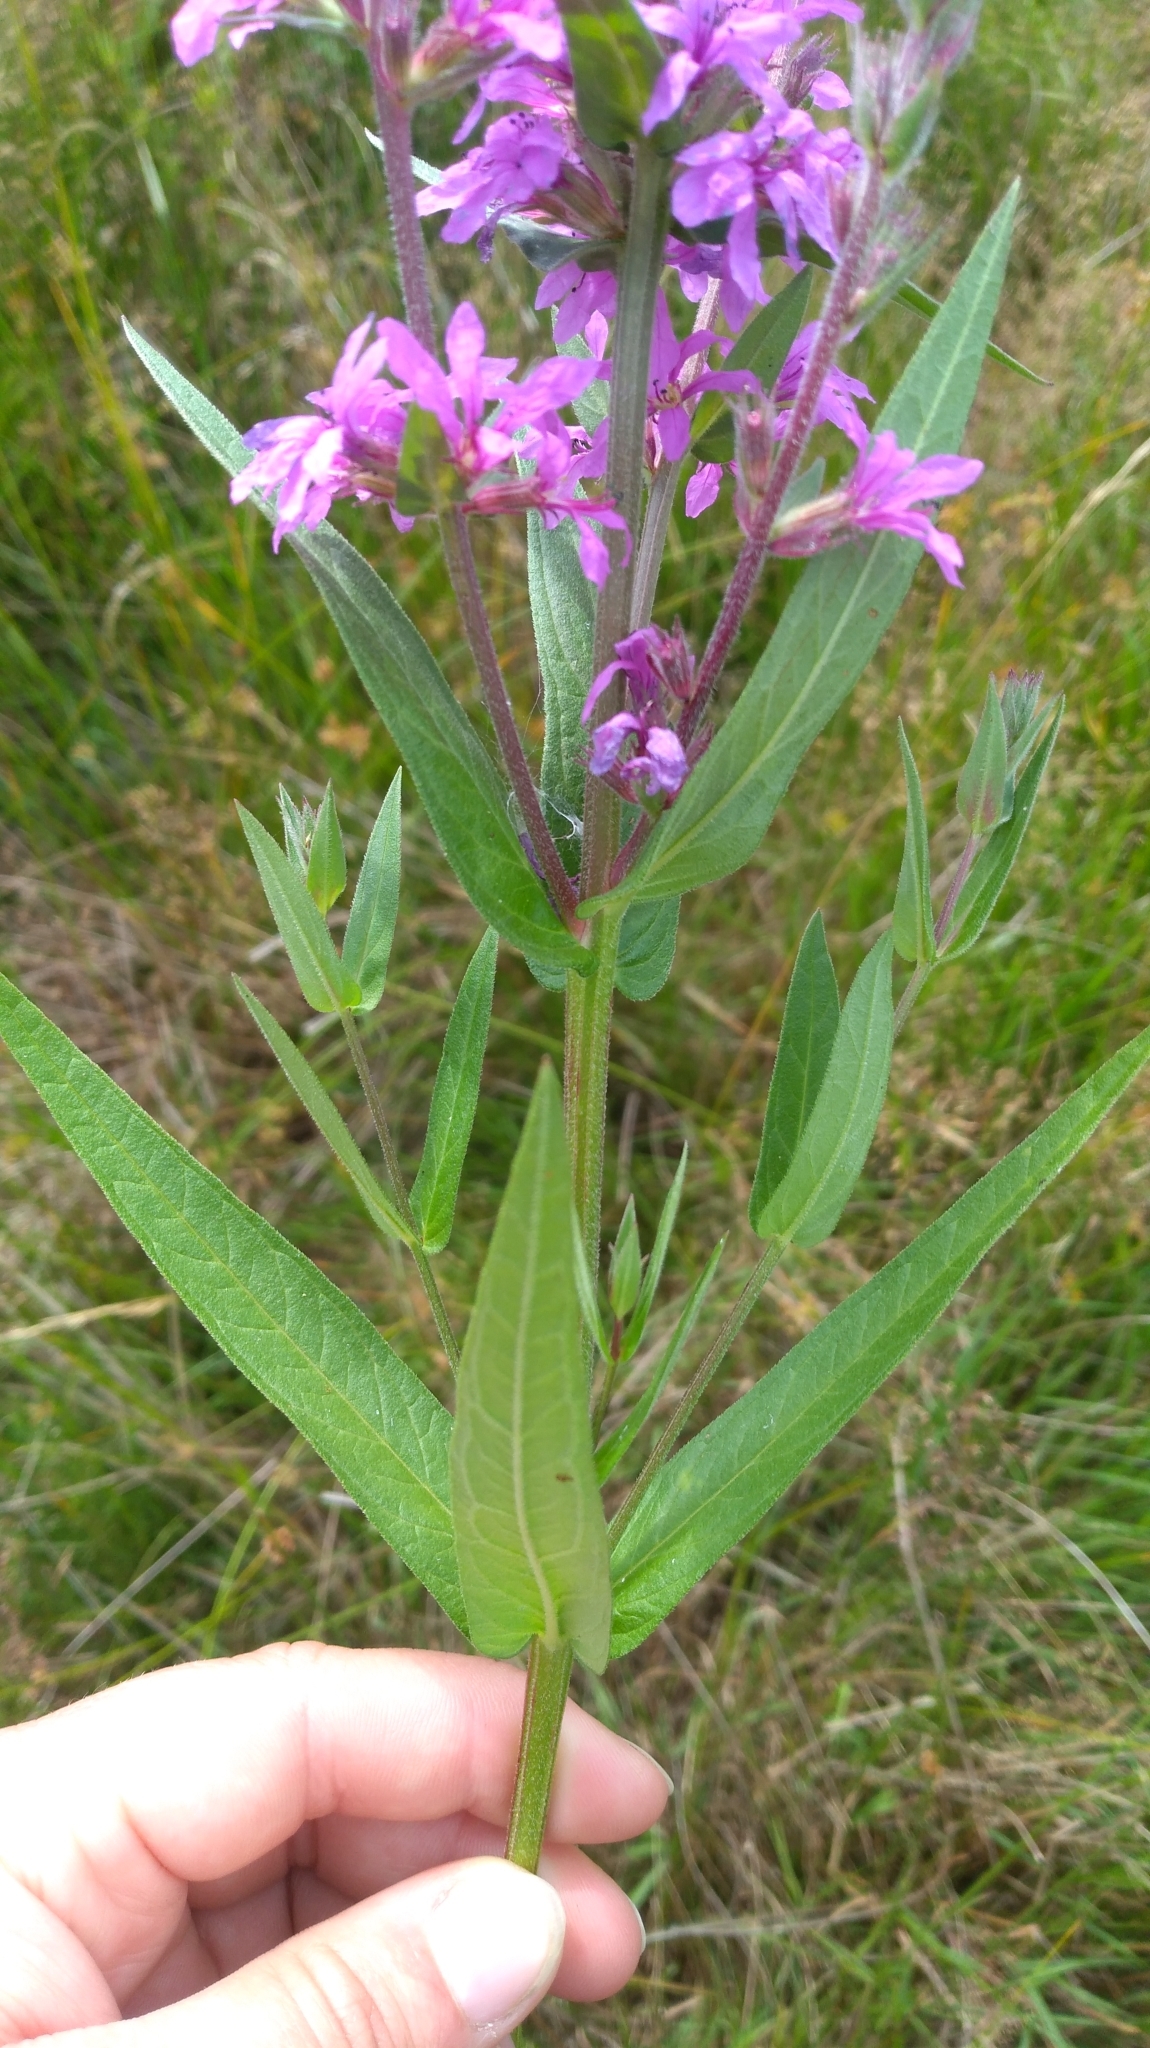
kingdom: Plantae
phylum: Tracheophyta
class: Magnoliopsida
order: Myrtales
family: Lythraceae
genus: Lythrum
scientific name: Lythrum salicaria
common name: Purple loosestrife
